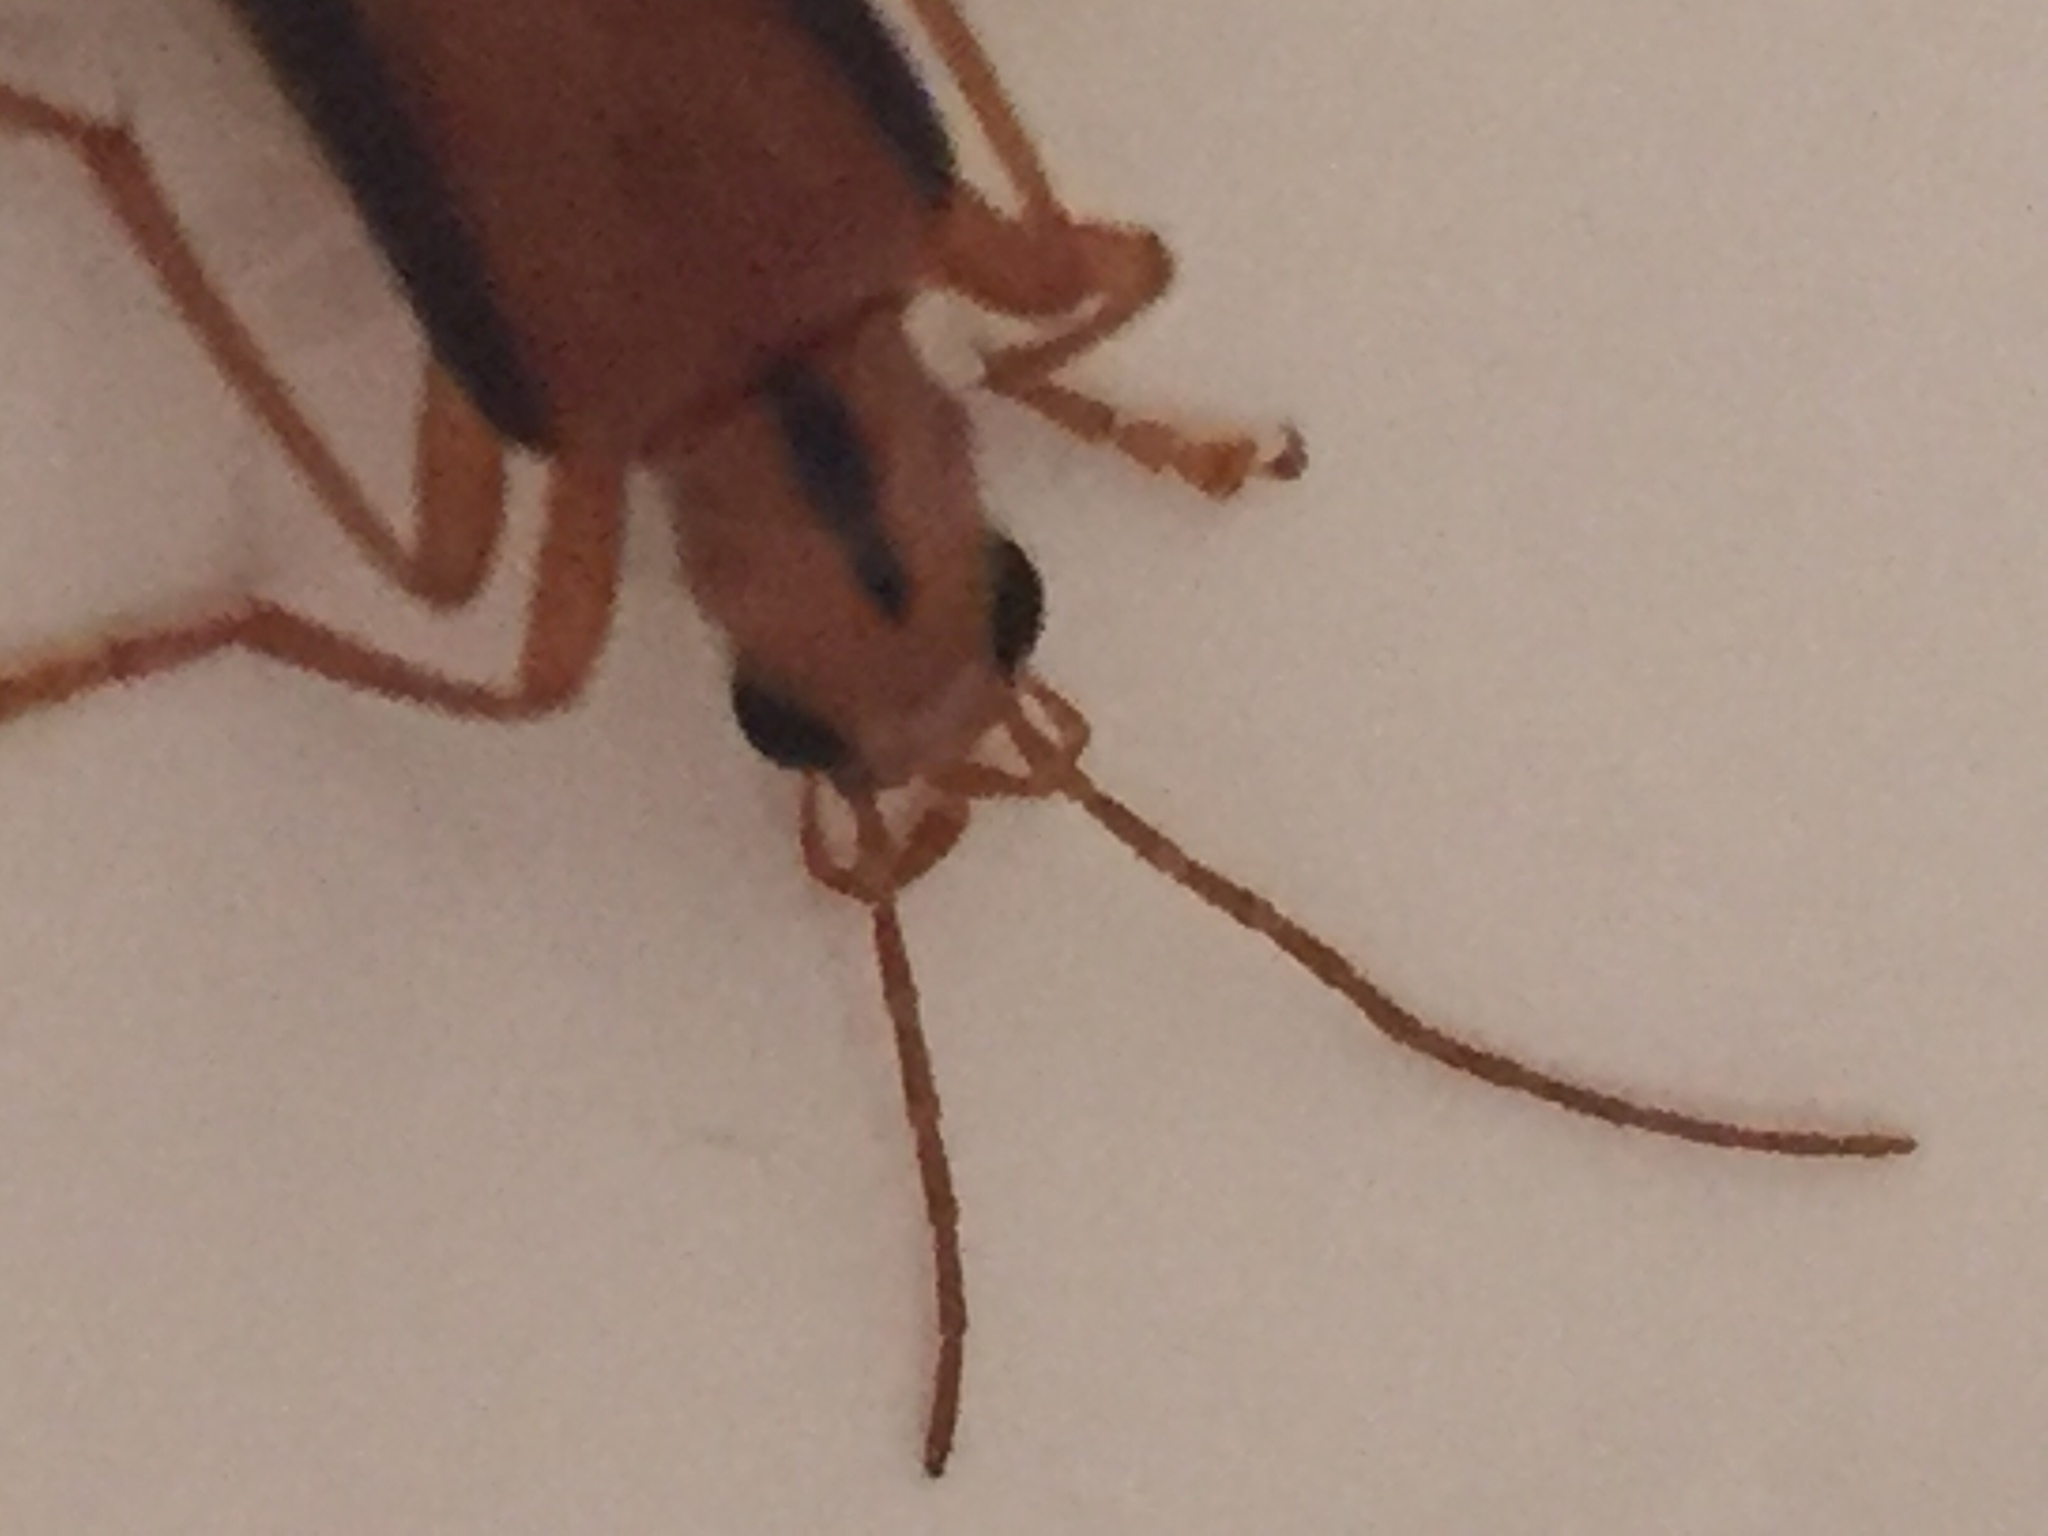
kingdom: Animalia
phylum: Arthropoda
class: Insecta
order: Coleoptera
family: Oedemeridae
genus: Thelyphassa
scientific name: Thelyphassa
